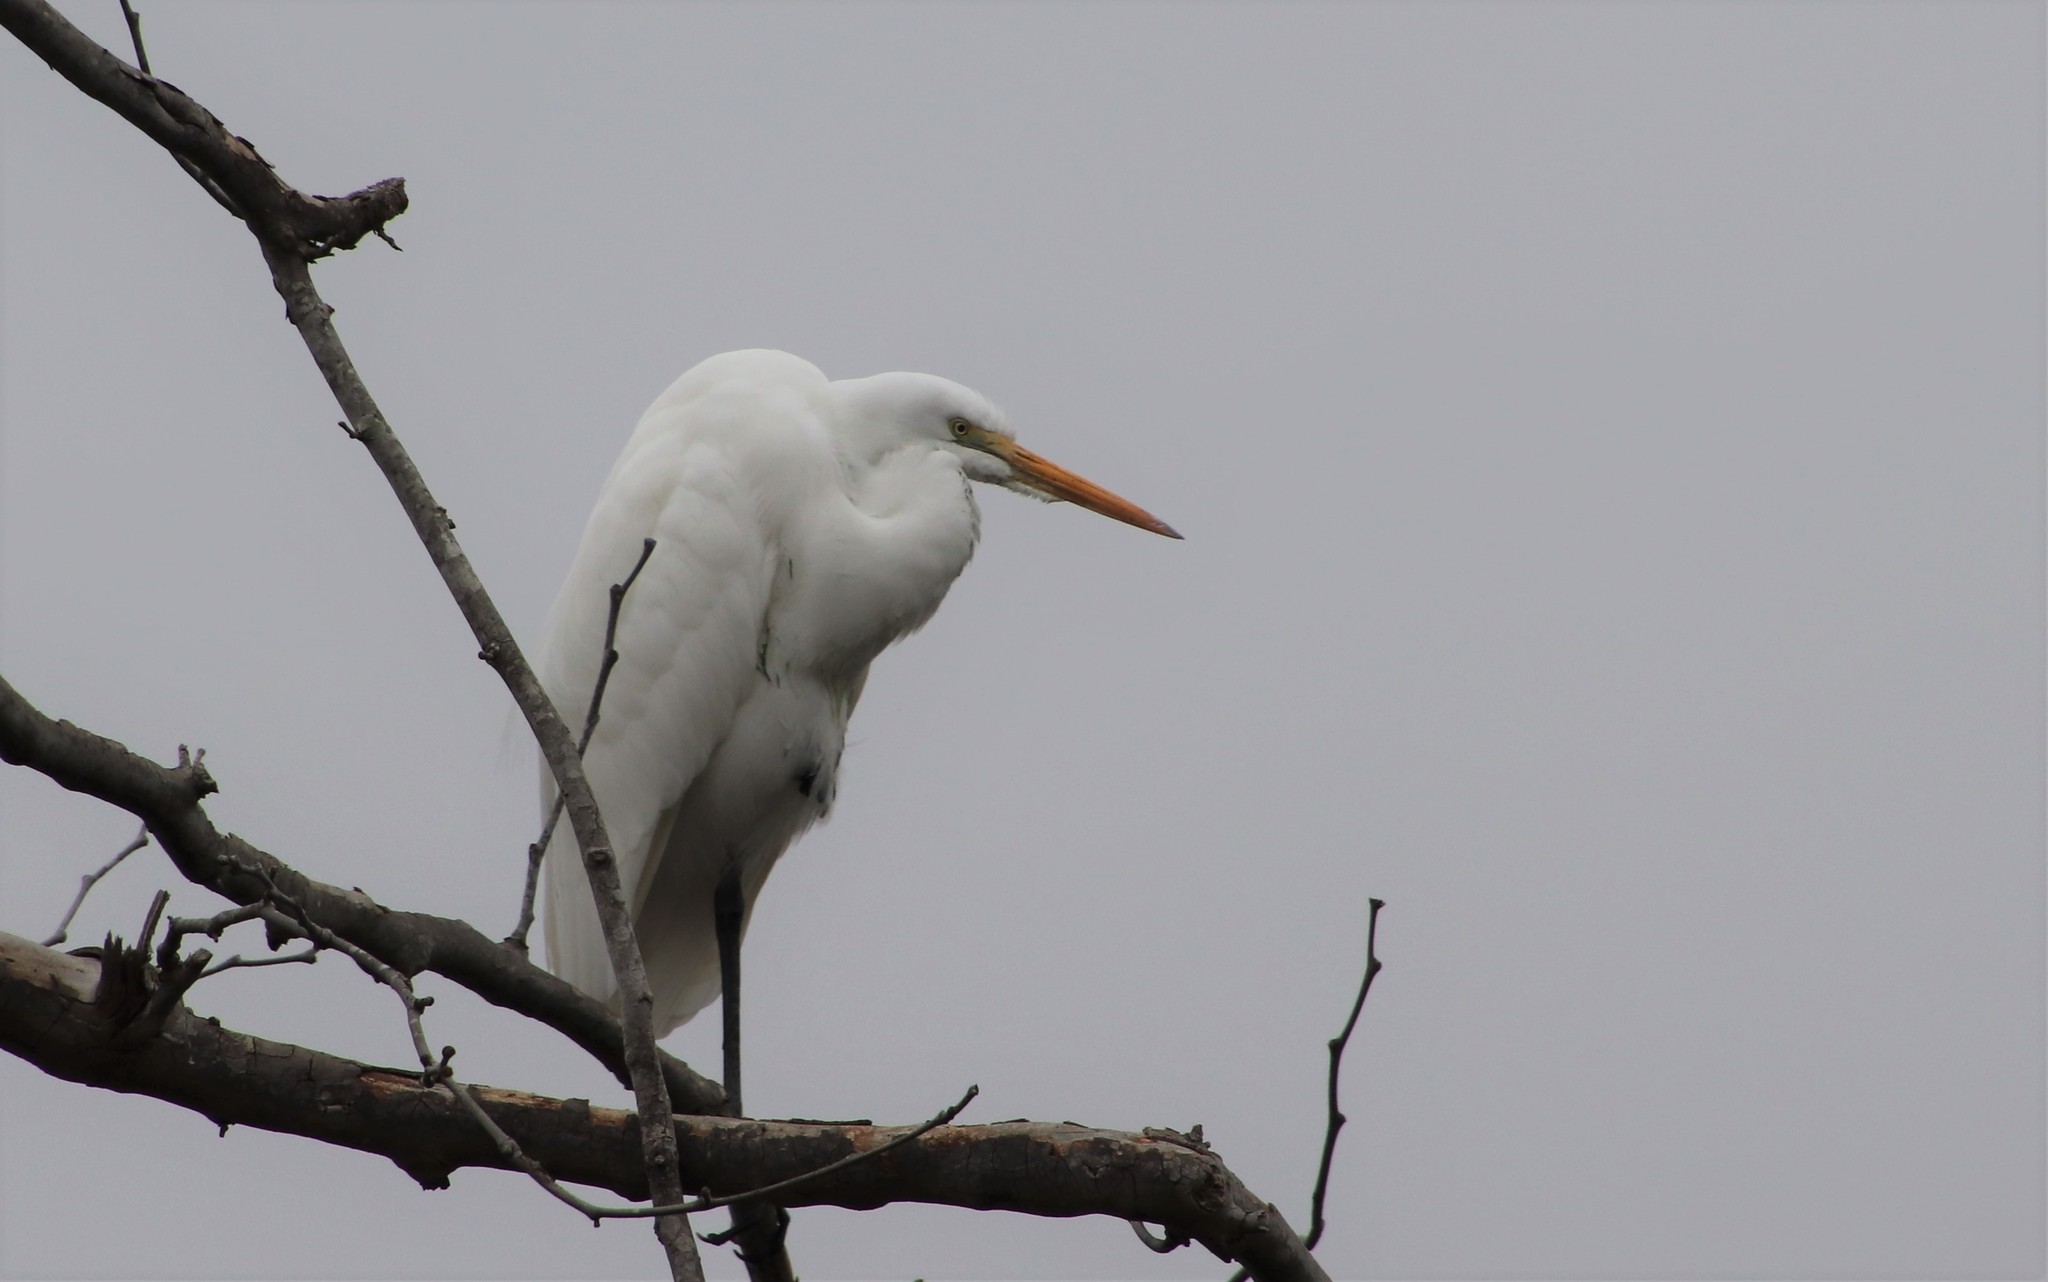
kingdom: Animalia
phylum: Chordata
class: Aves
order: Pelecaniformes
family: Ardeidae
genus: Ardea
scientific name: Ardea alba
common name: Great egret
